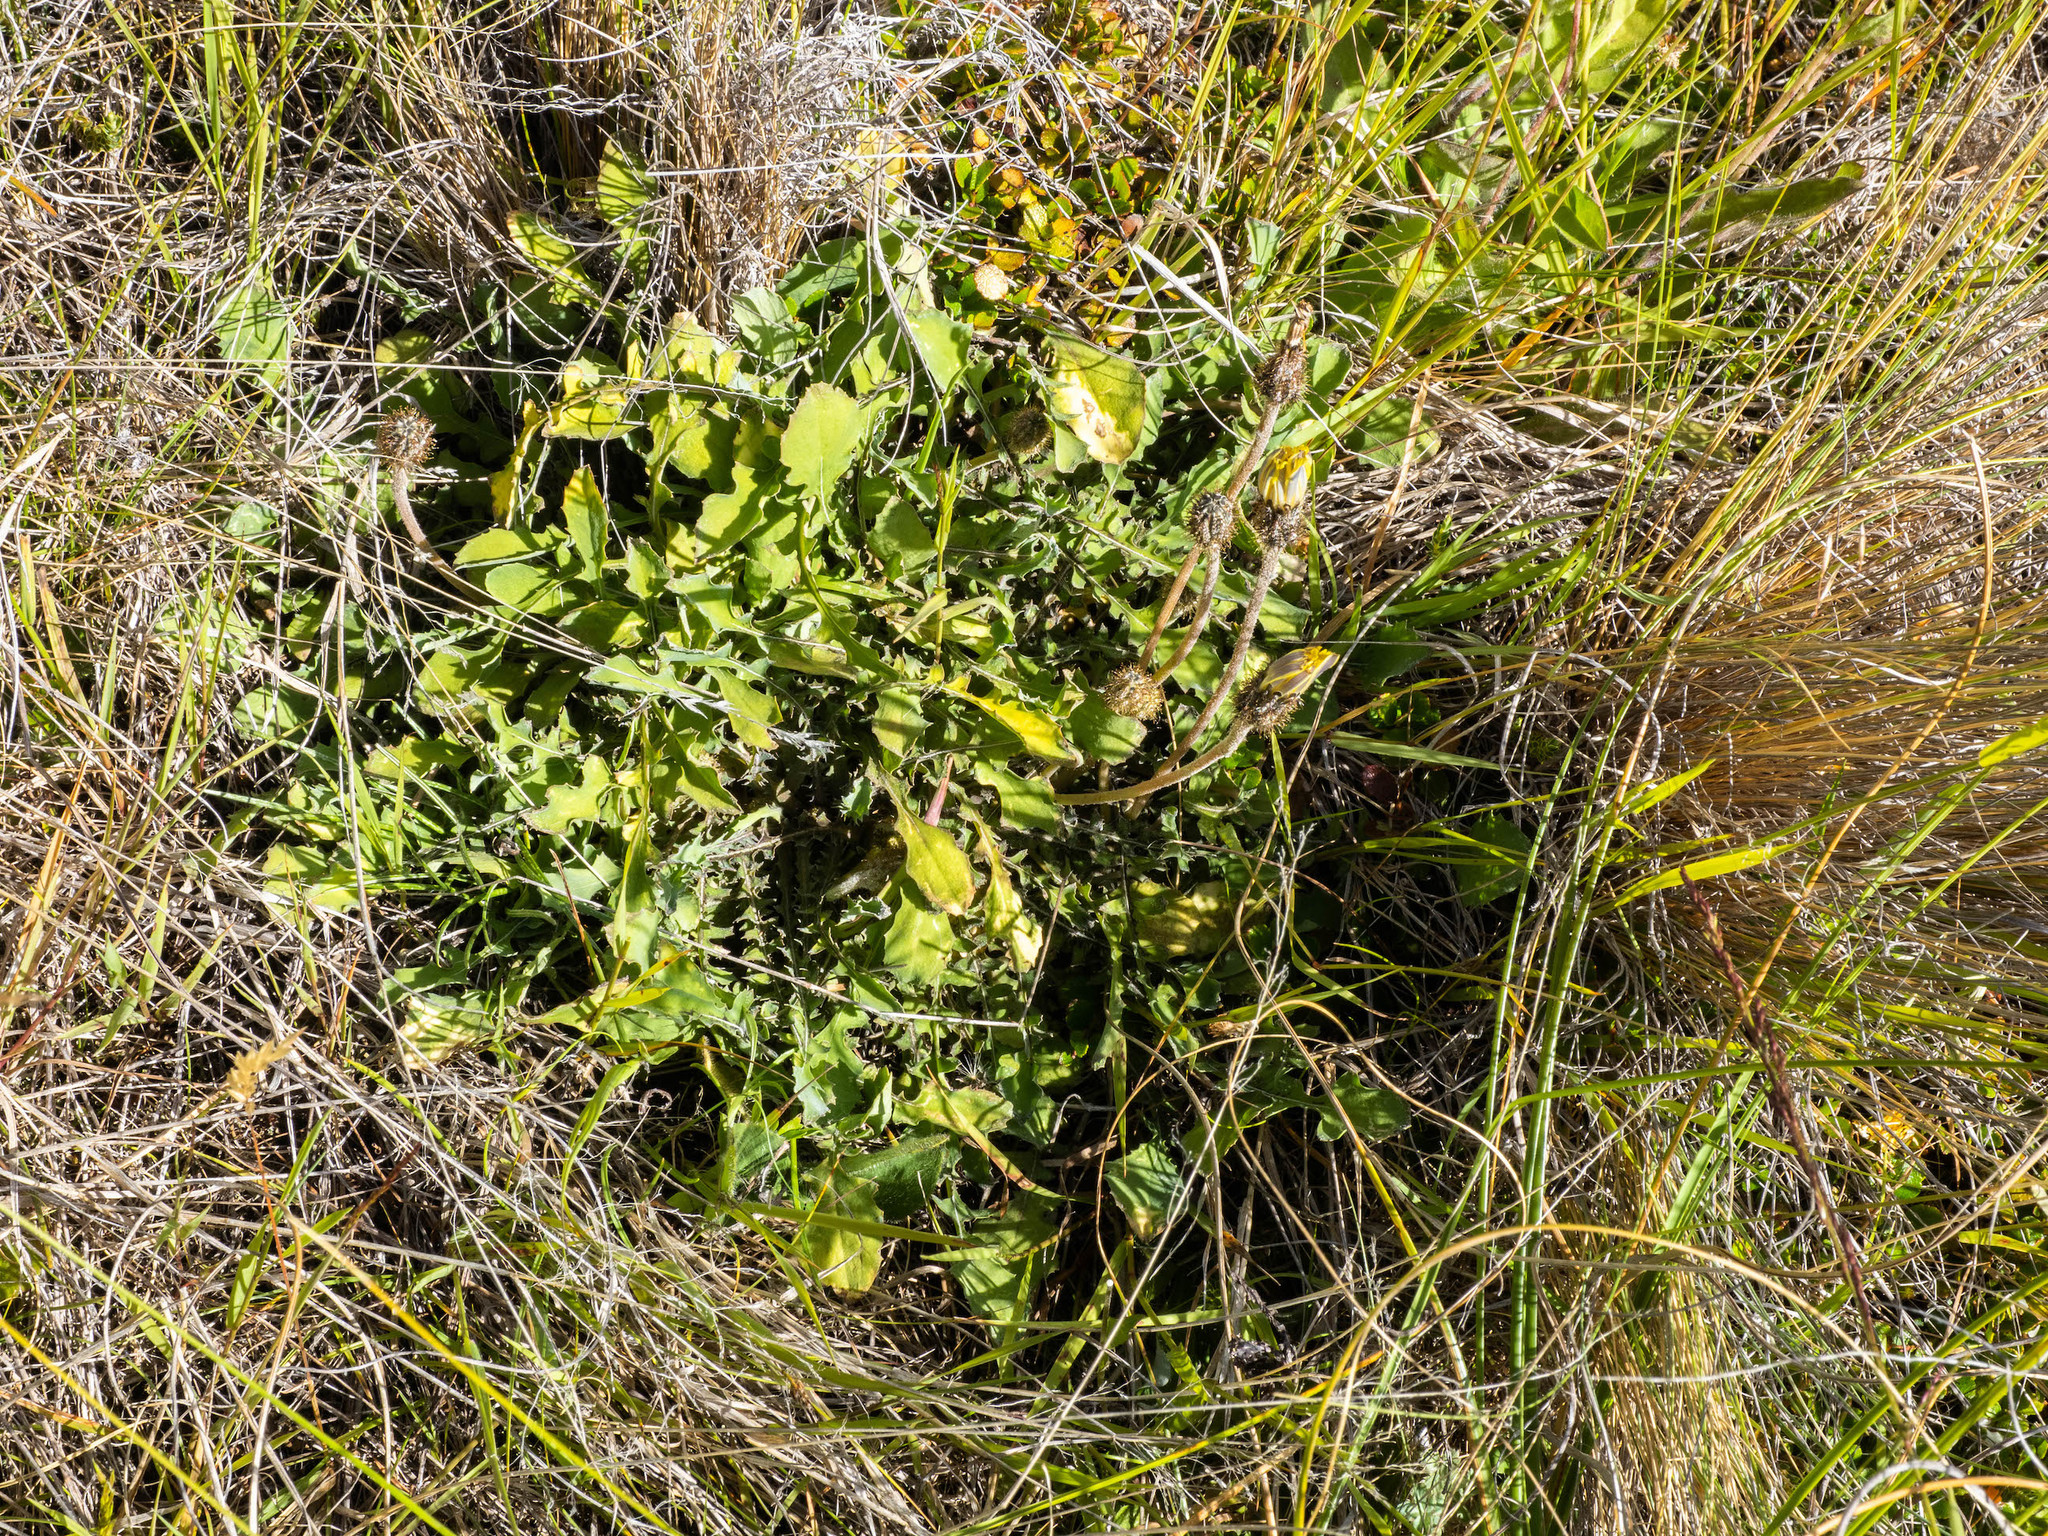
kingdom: Plantae
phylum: Tracheophyta
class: Magnoliopsida
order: Asterales
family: Asteraceae
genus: Sonchus
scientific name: Sonchus novae-zelandiae
